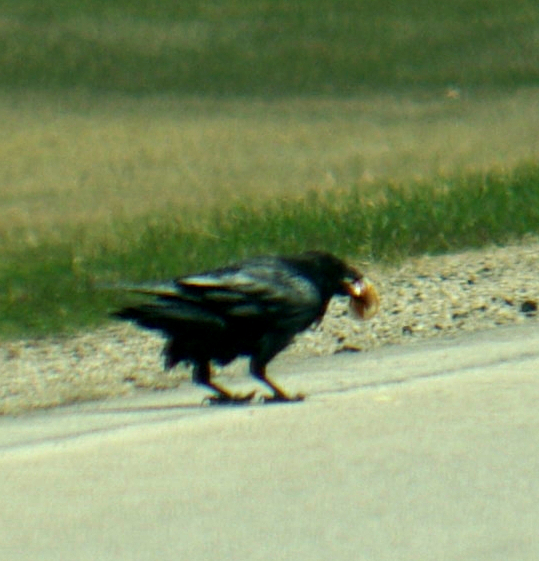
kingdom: Animalia
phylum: Chordata
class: Aves
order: Passeriformes
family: Corvidae
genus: Corvus
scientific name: Corvus corax
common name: Common raven
